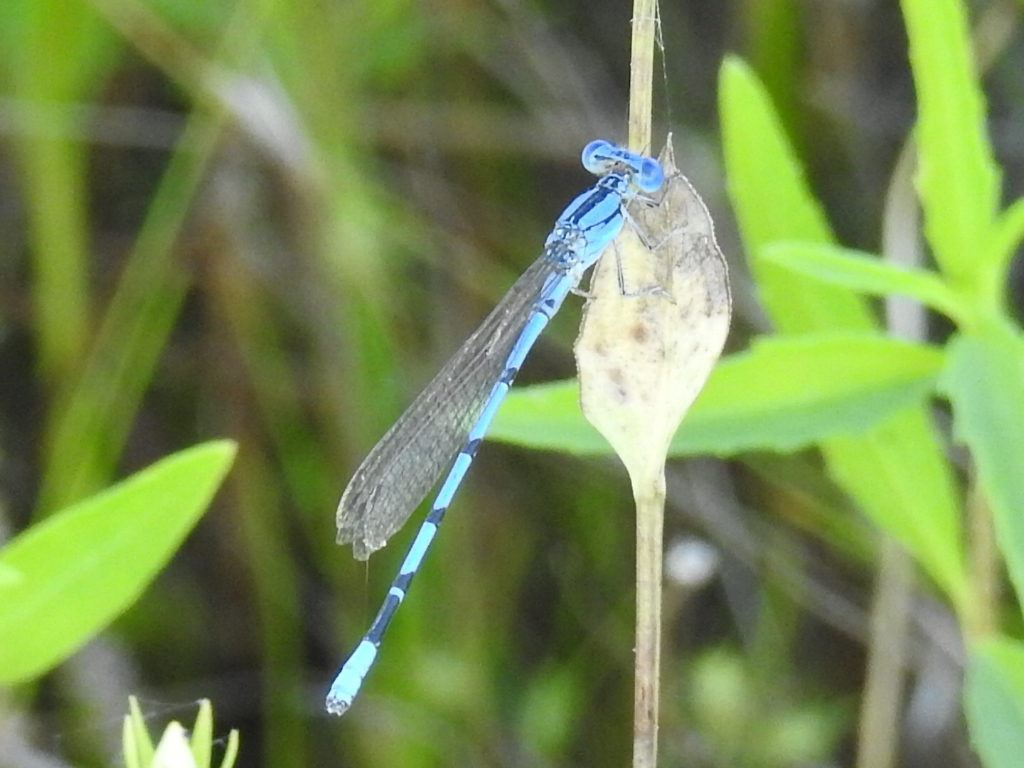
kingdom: Animalia
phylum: Arthropoda
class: Insecta
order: Odonata
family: Coenagrionidae
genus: Argia
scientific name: Argia nahuana
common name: Aztec dancer
